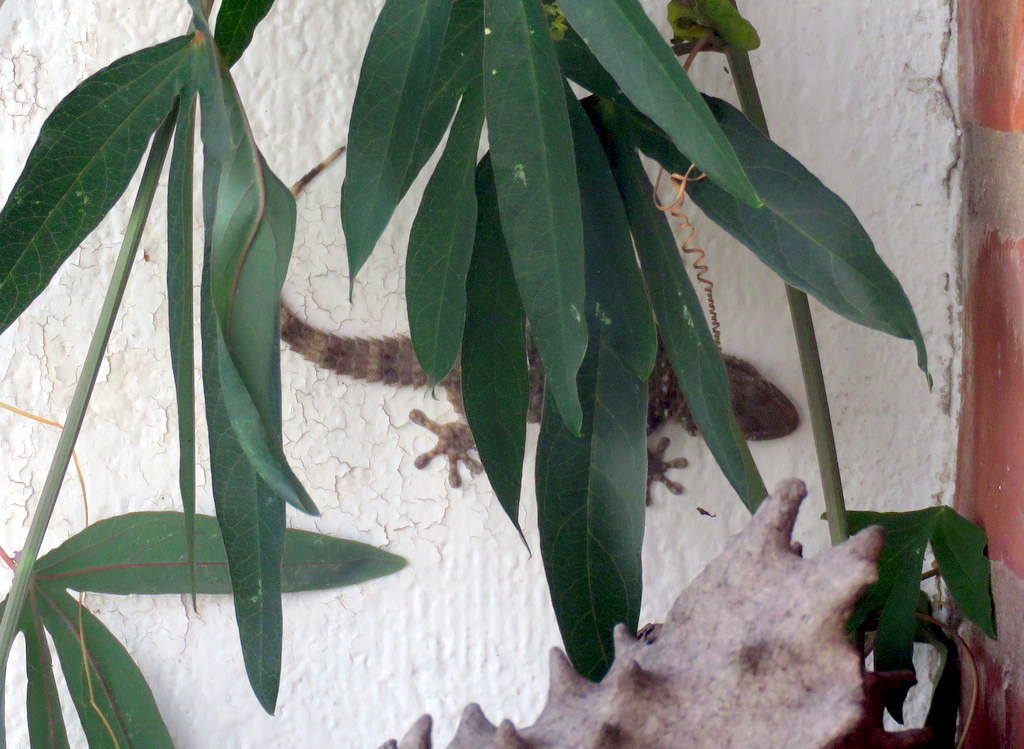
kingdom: Animalia
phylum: Chordata
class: Squamata
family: Phyllodactylidae
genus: Tarentola
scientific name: Tarentola mauritanica
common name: Moorish gecko
